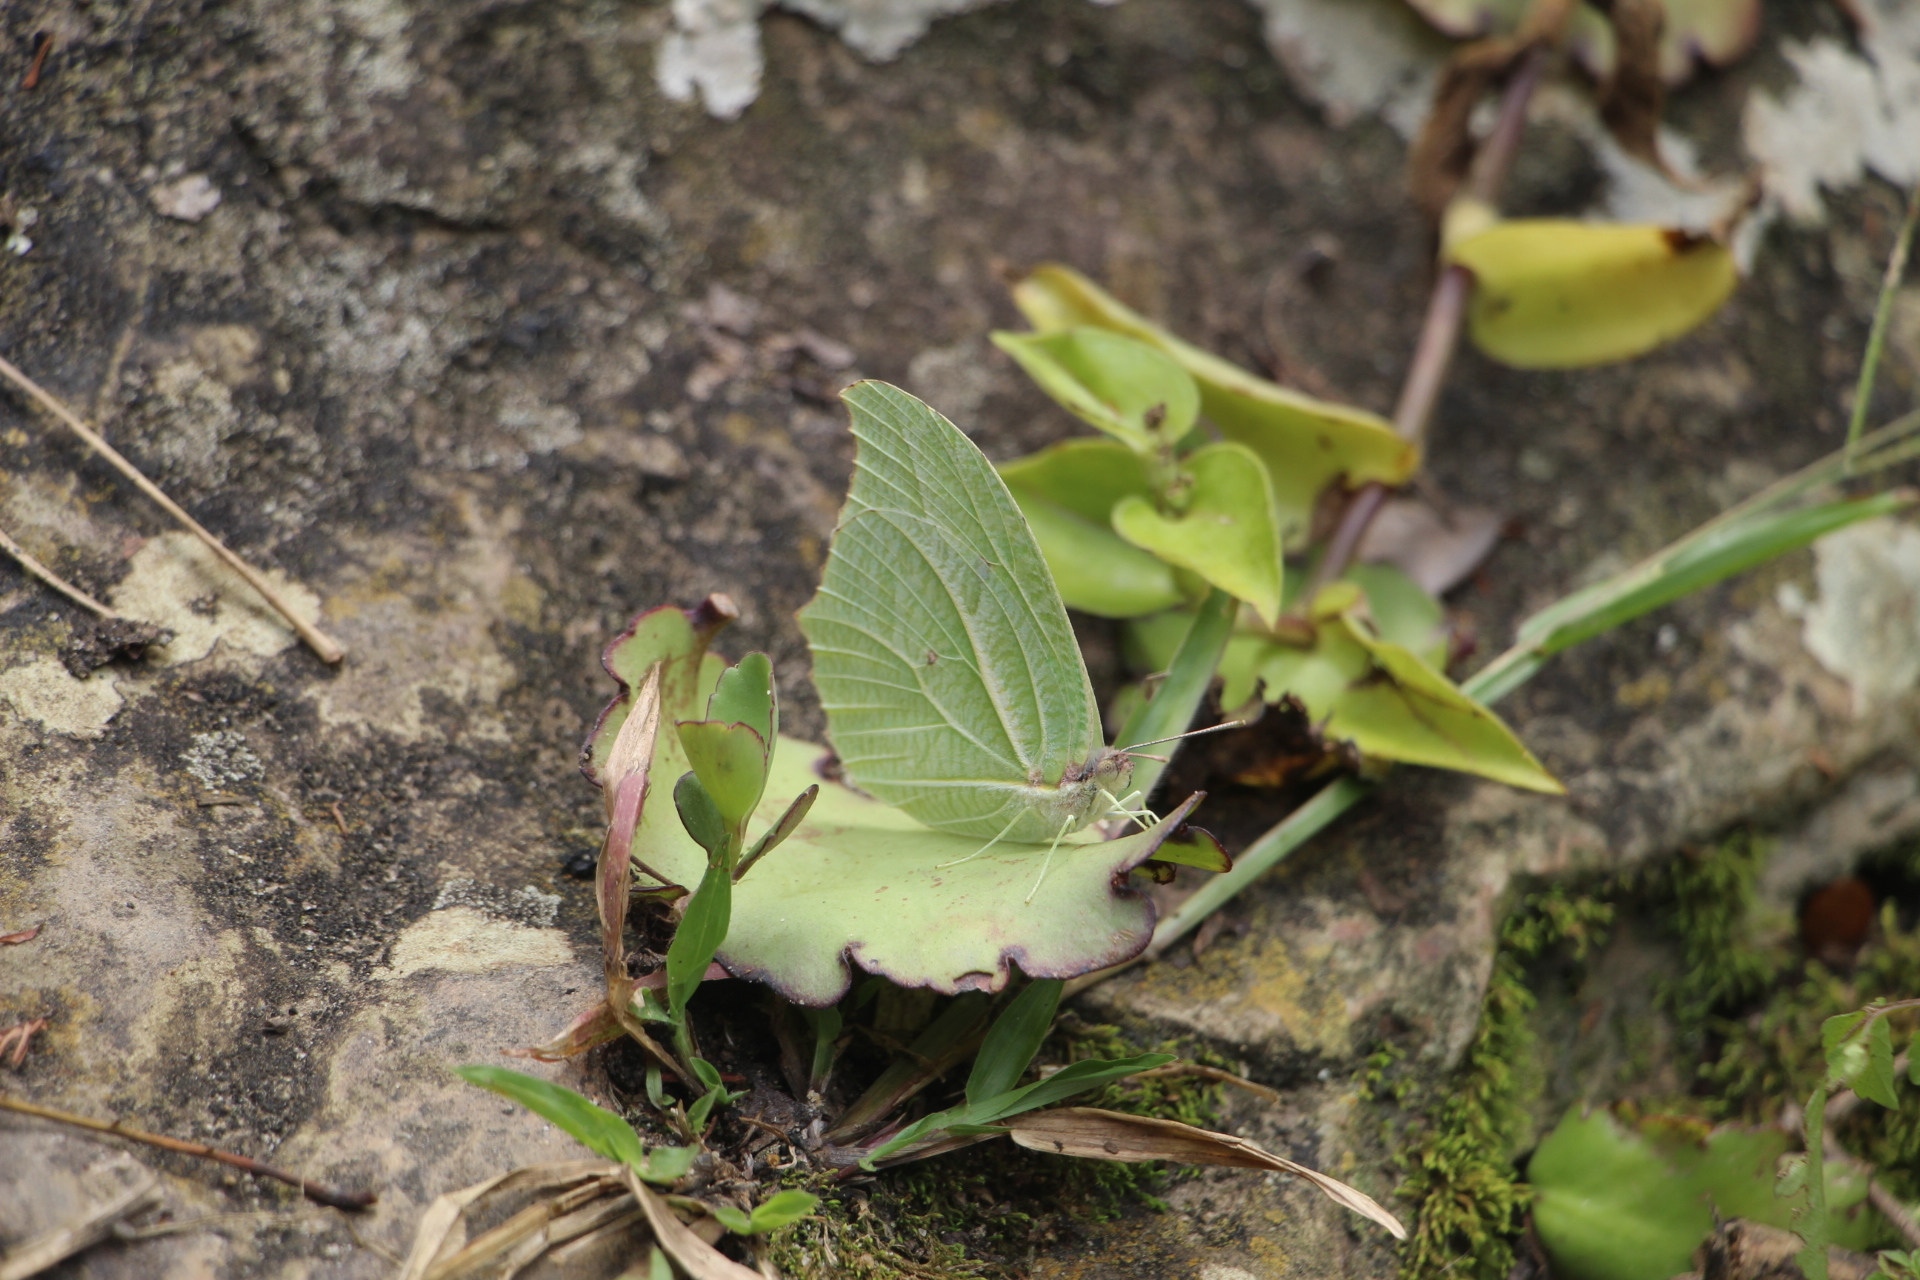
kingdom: Animalia
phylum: Arthropoda
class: Insecta
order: Lepidoptera
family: Pieridae
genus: Anteos
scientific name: Anteos clorinde
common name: White angled sulphur
